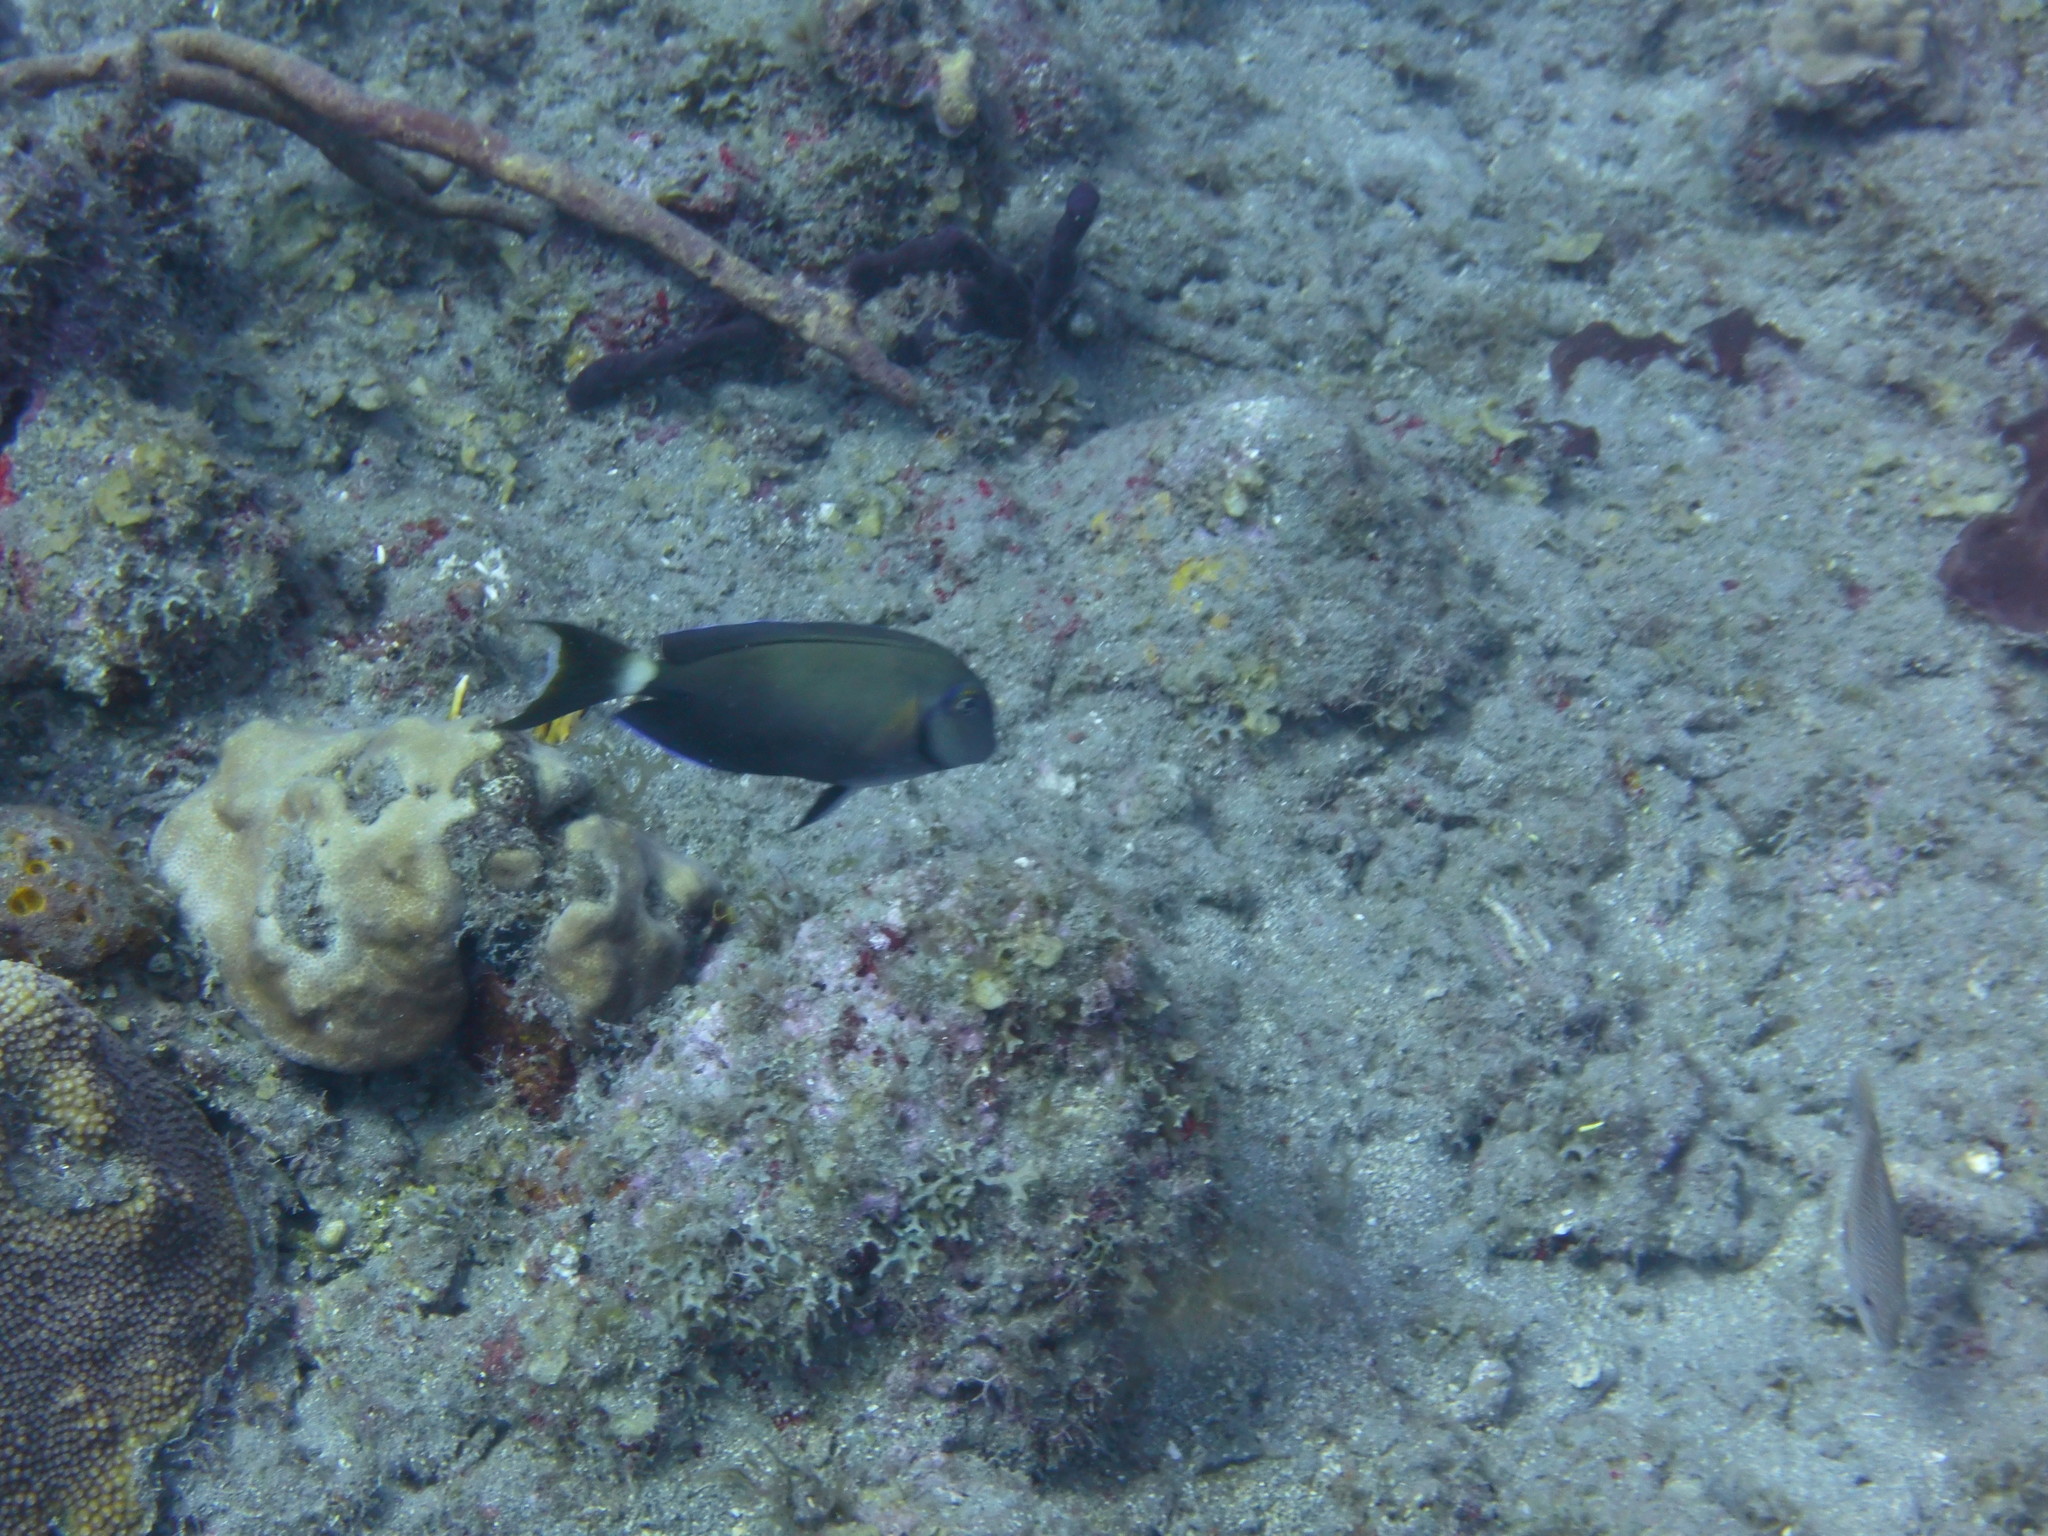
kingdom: Animalia
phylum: Chordata
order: Perciformes
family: Acanthuridae
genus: Acanthurus
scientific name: Acanthurus bahianus
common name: Ocean surgeon
